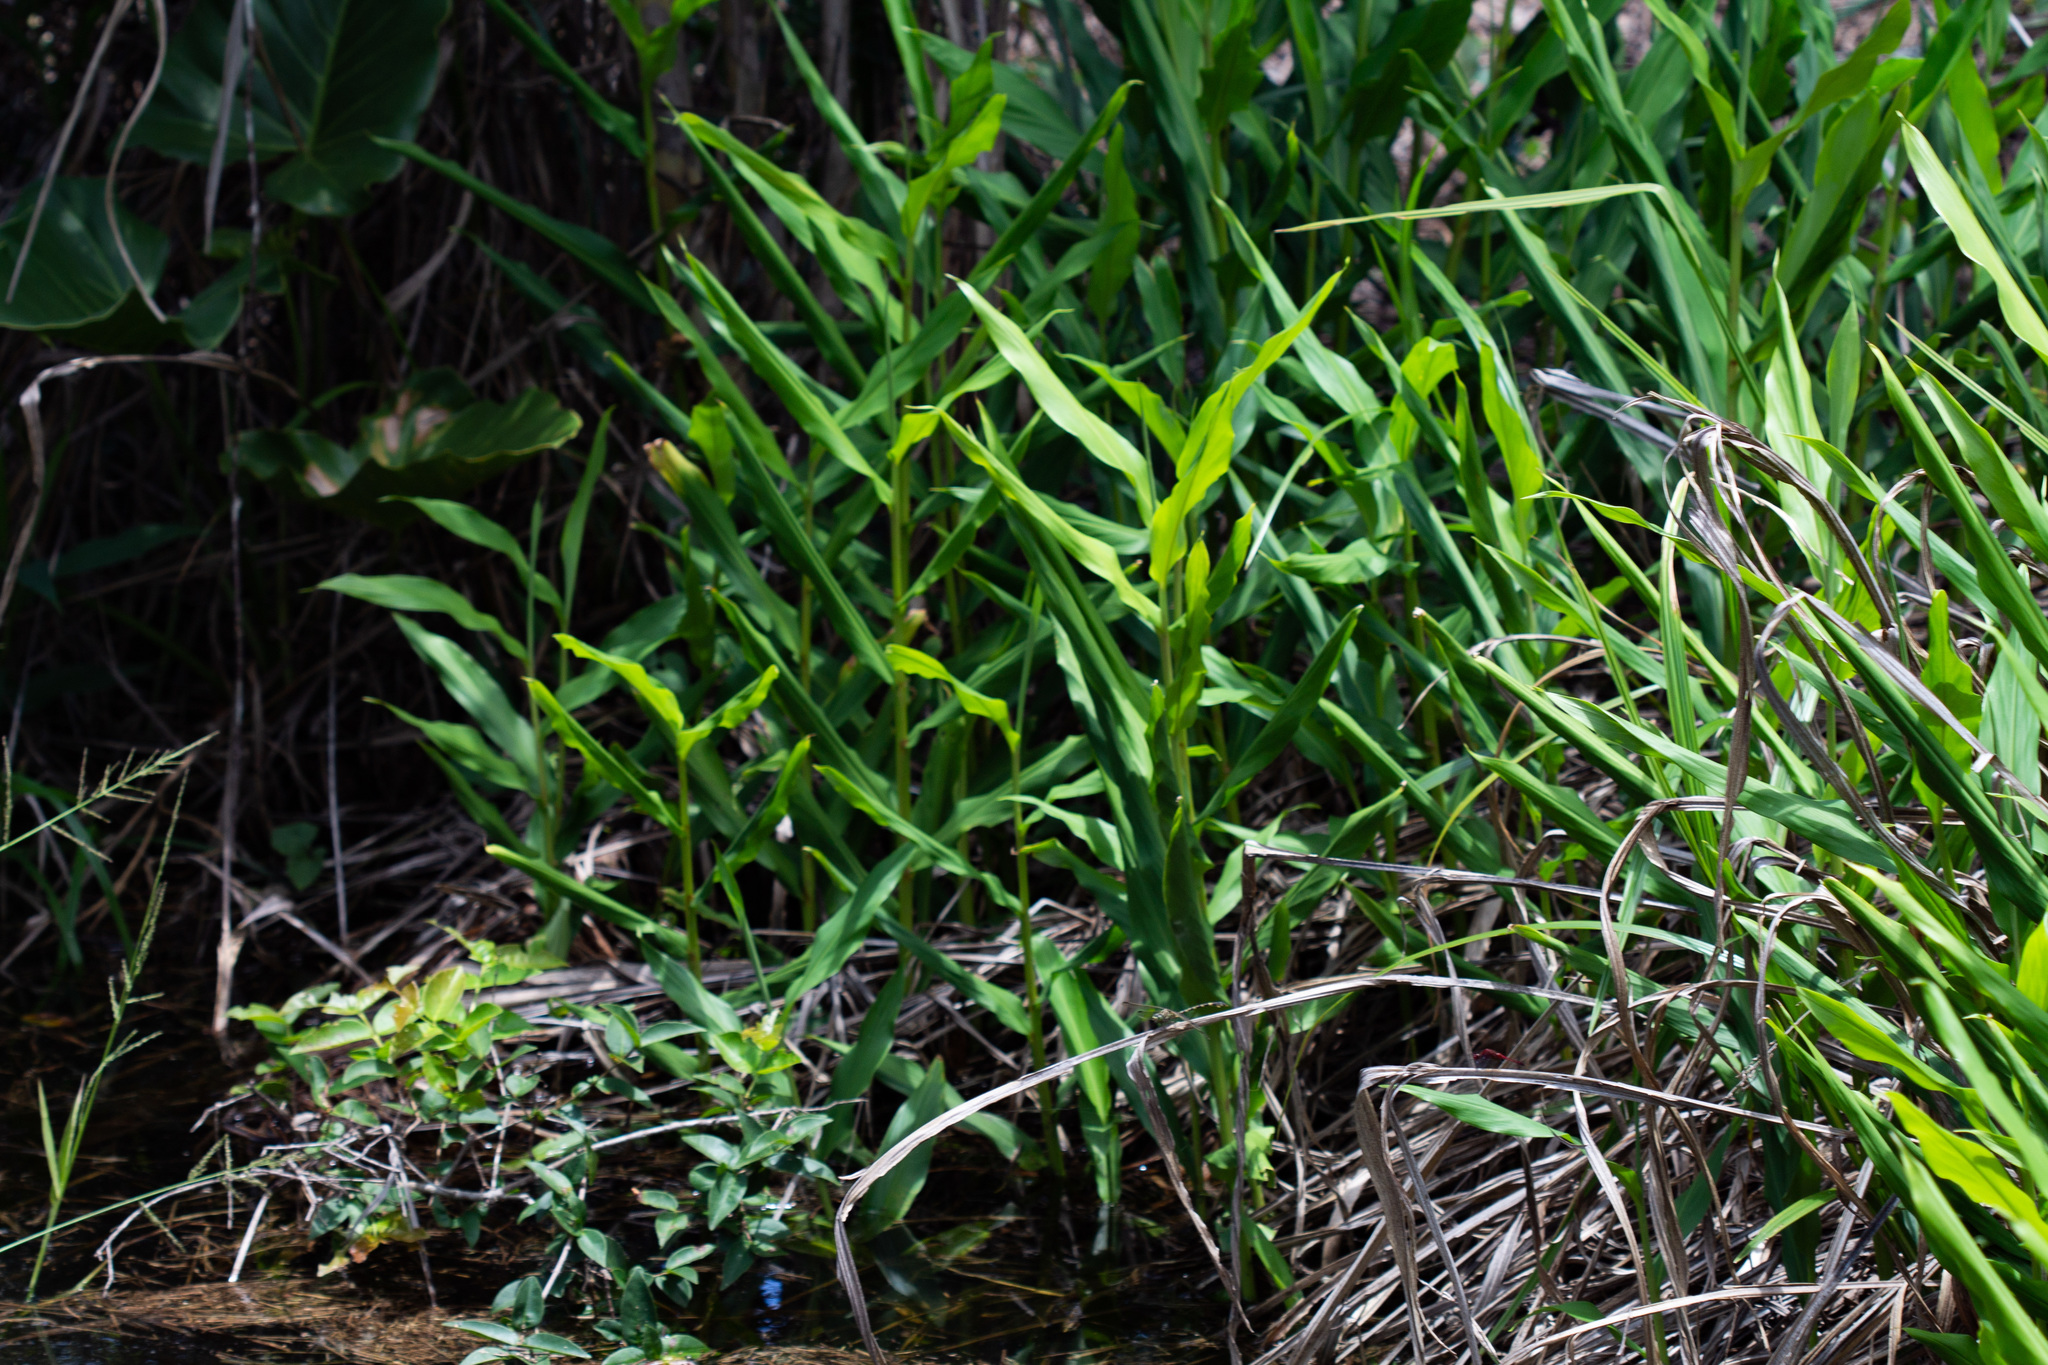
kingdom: Plantae
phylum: Tracheophyta
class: Liliopsida
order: Zingiberales
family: Zingiberaceae
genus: Hedychium
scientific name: Hedychium coronarium
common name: White garland-lily
